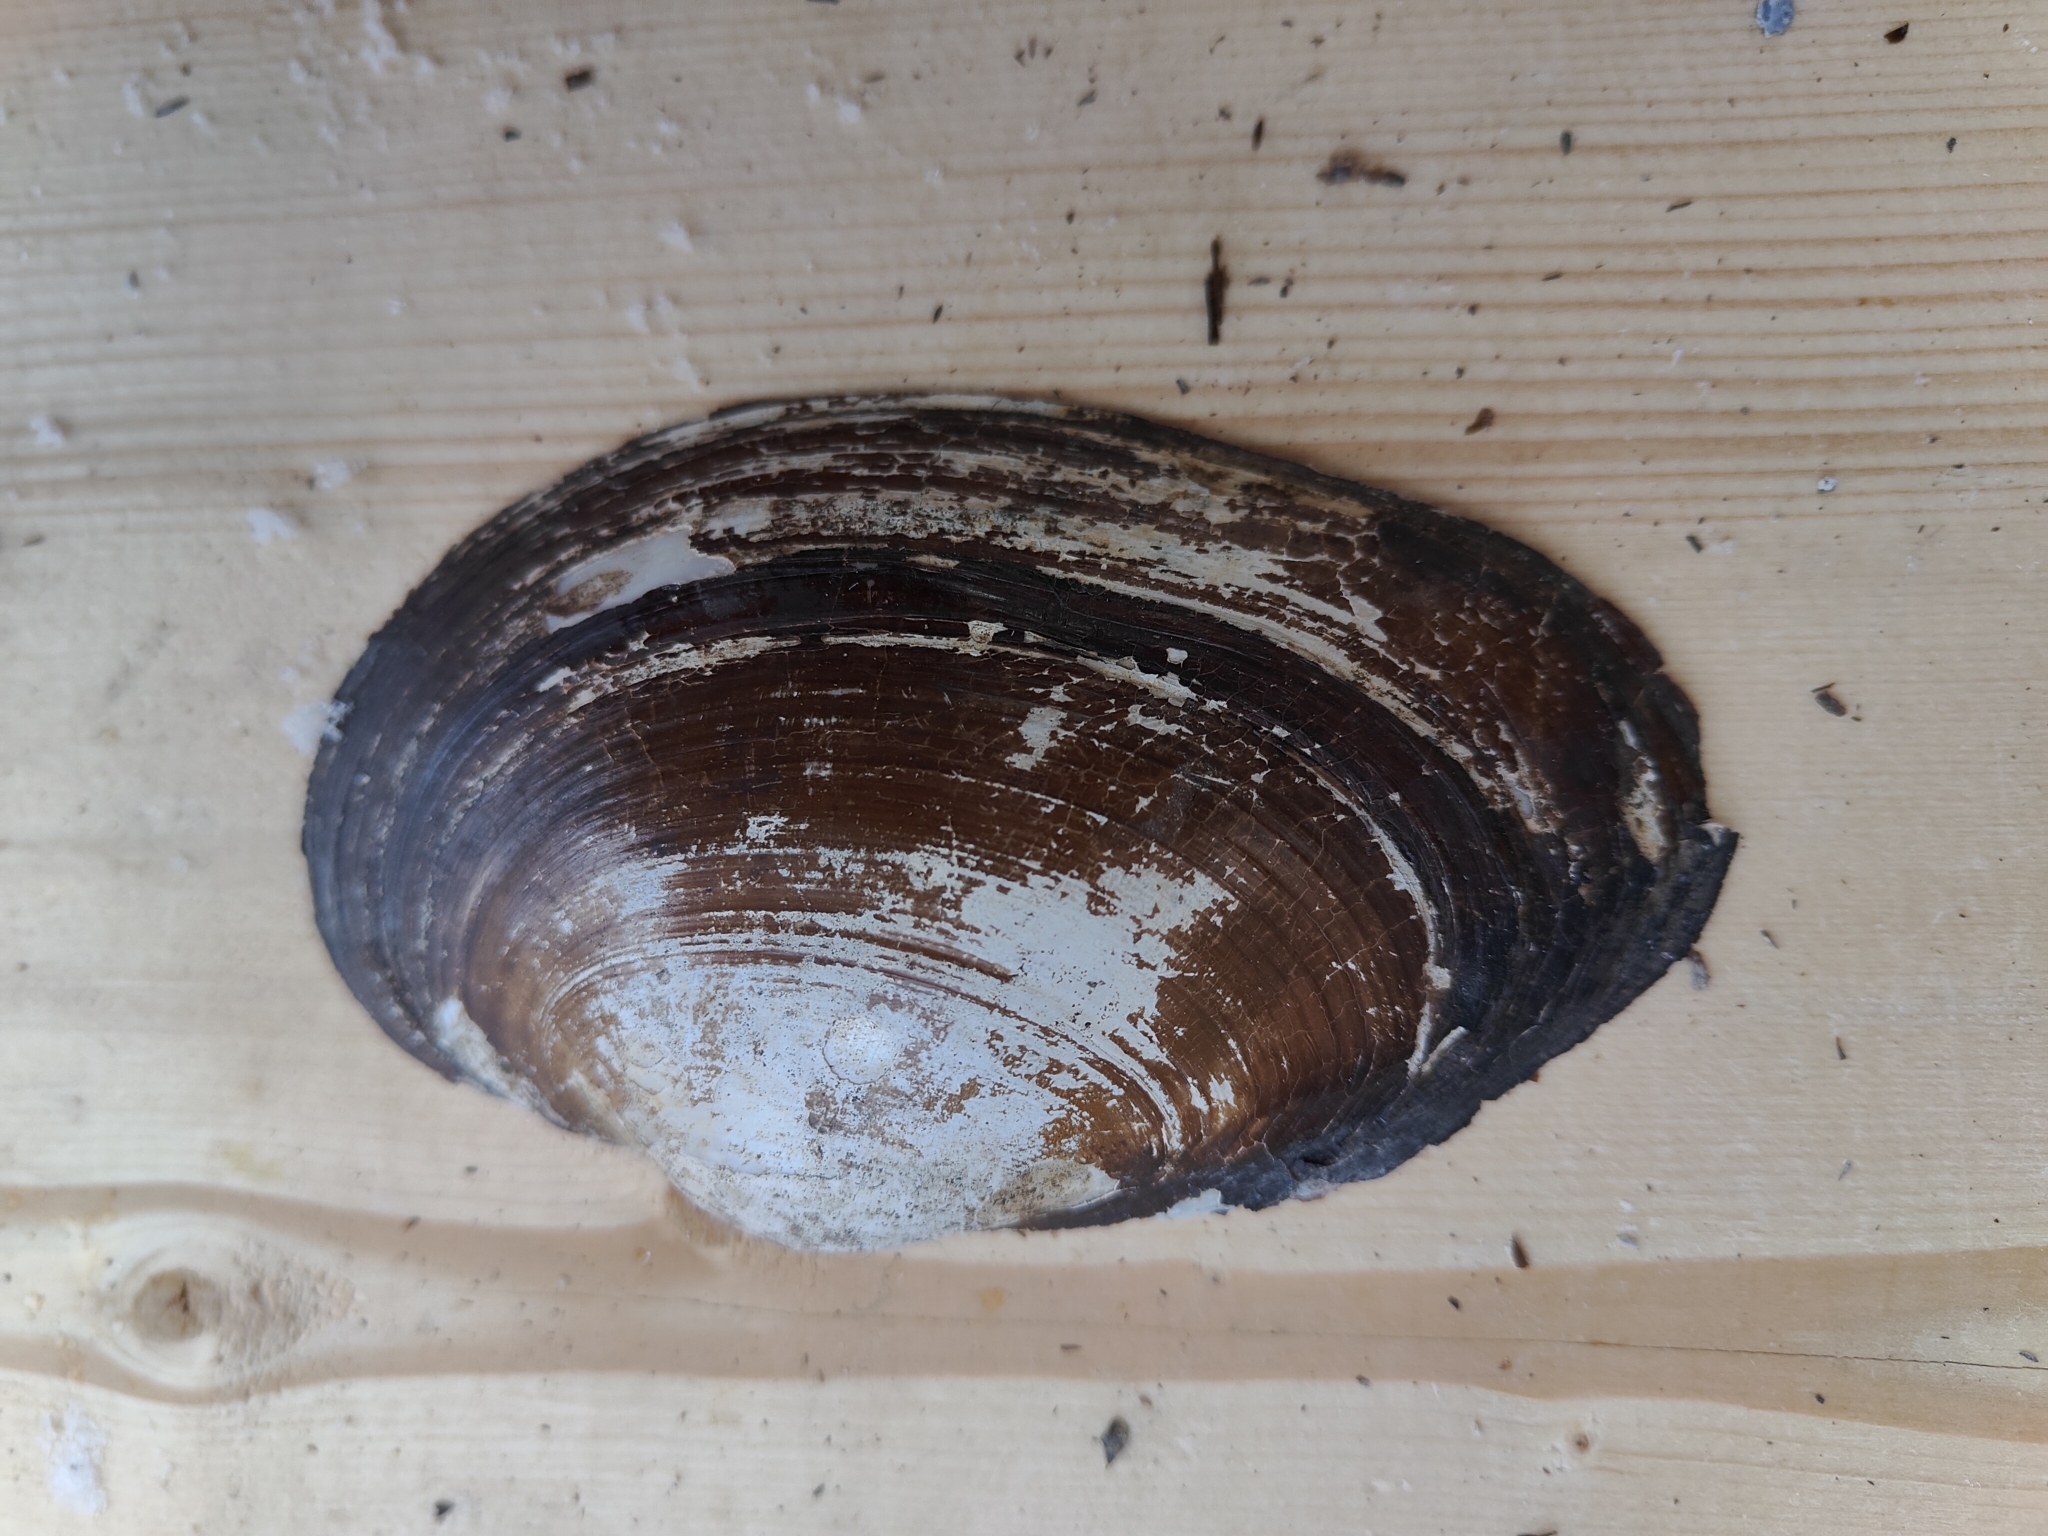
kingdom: Animalia
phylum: Mollusca
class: Bivalvia
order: Unionida
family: Unionidae
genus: Pyganodon
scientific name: Pyganodon grandis
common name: Giant floater
